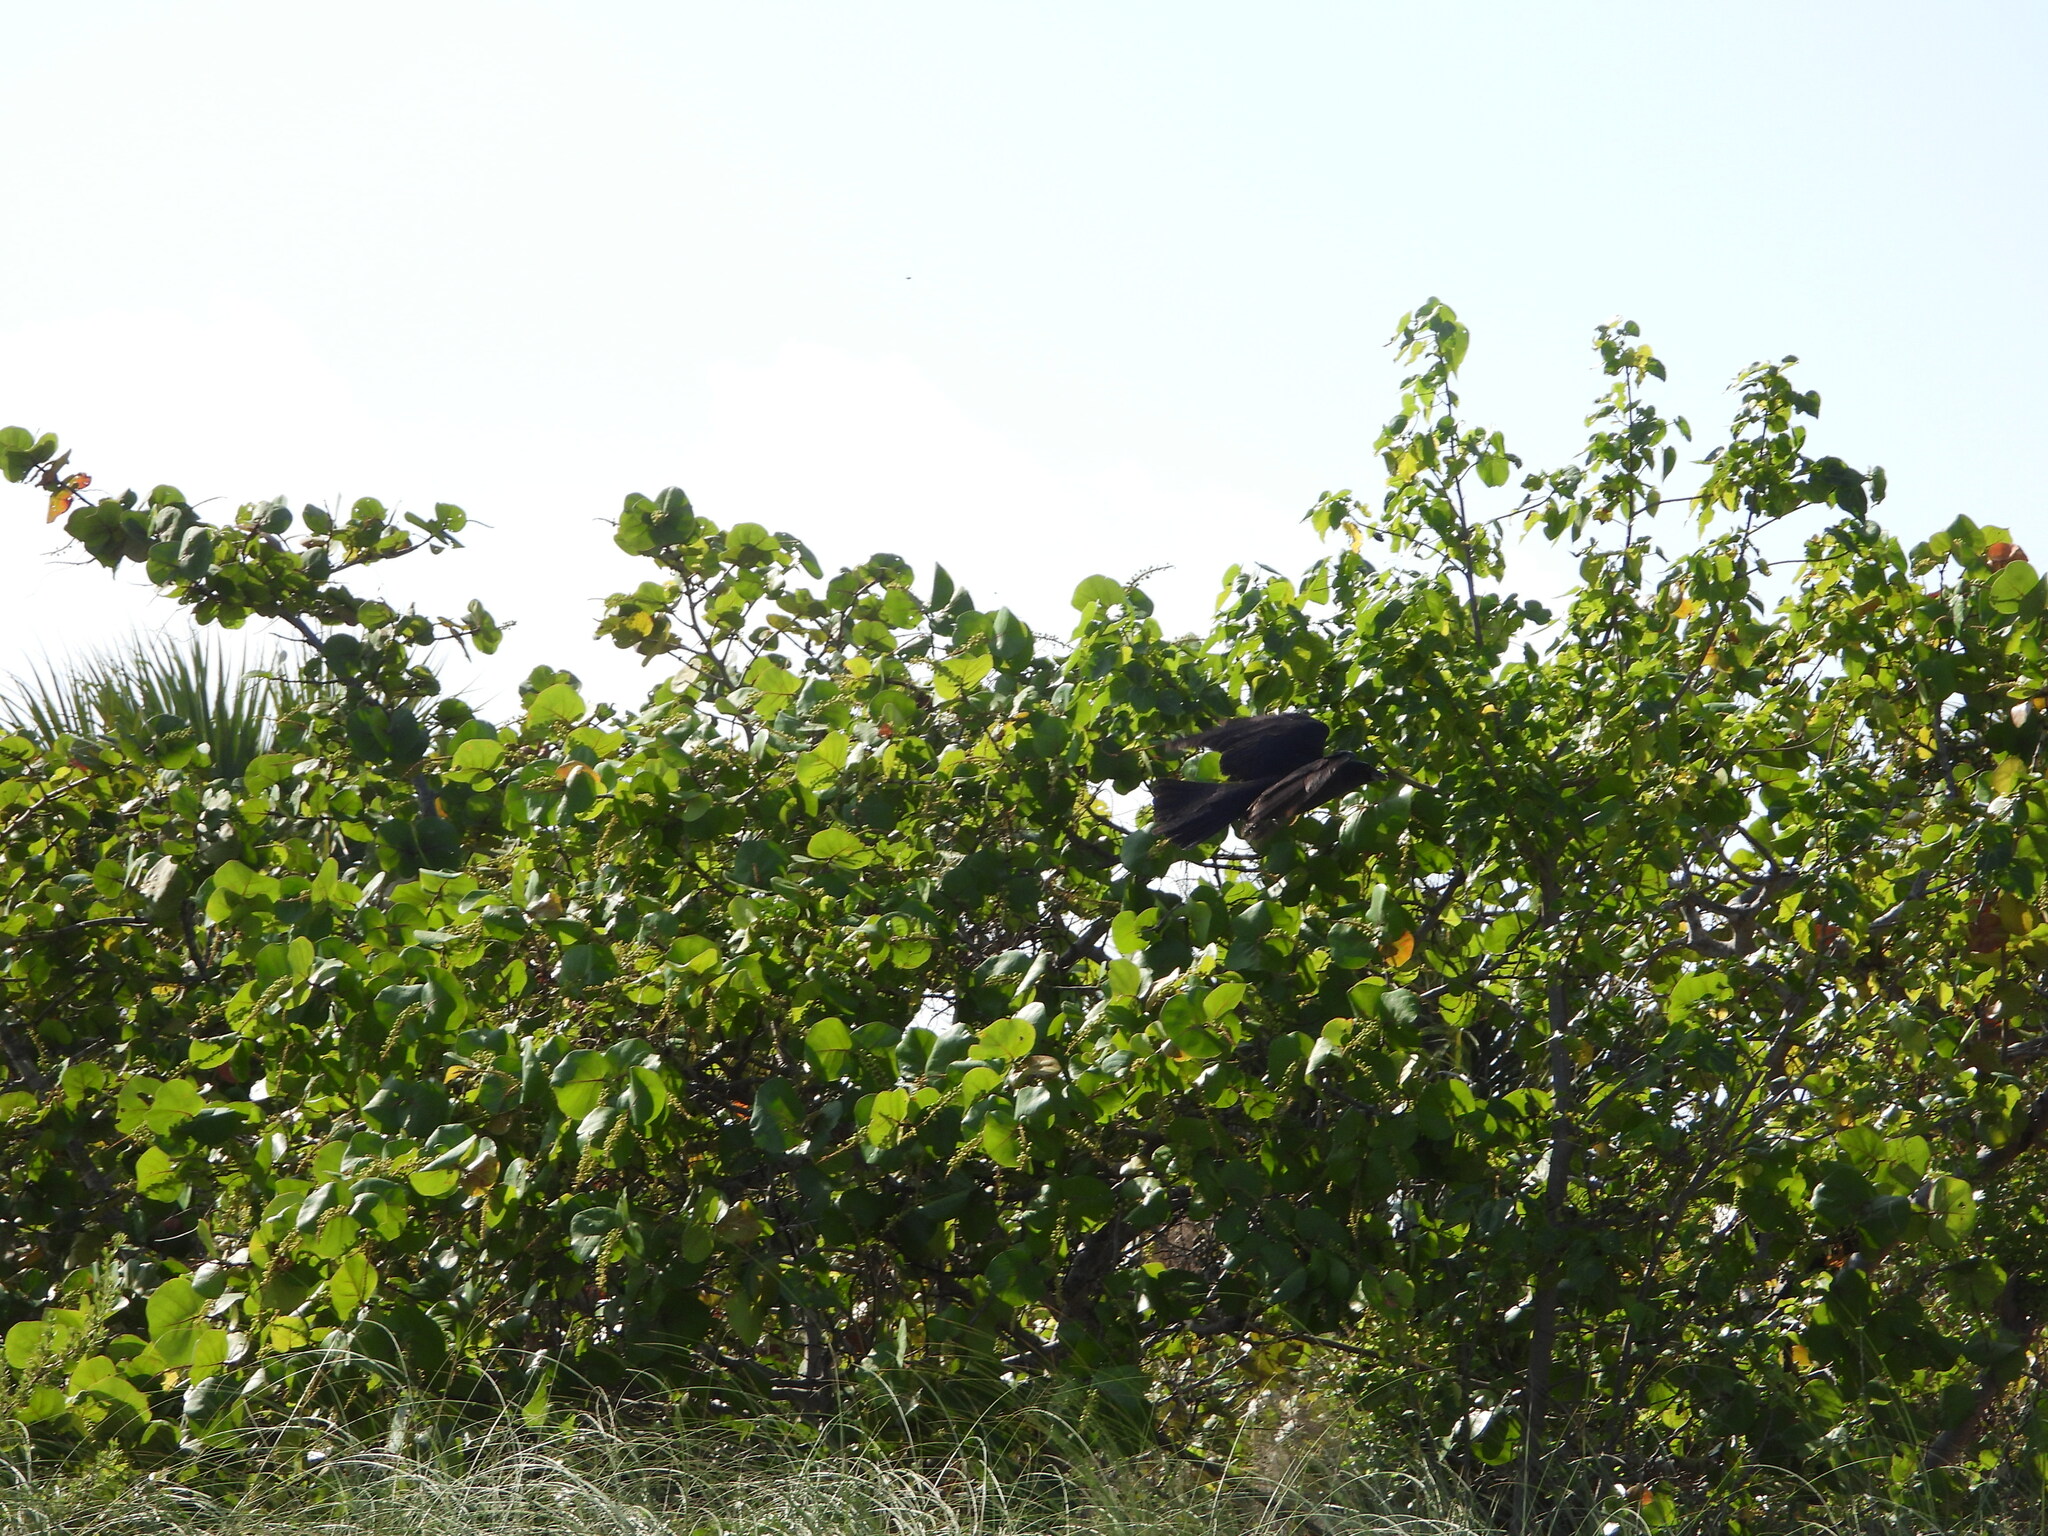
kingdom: Animalia
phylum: Chordata
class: Aves
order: Passeriformes
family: Corvidae
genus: Corvus
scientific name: Corvus ossifragus
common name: Fish crow
